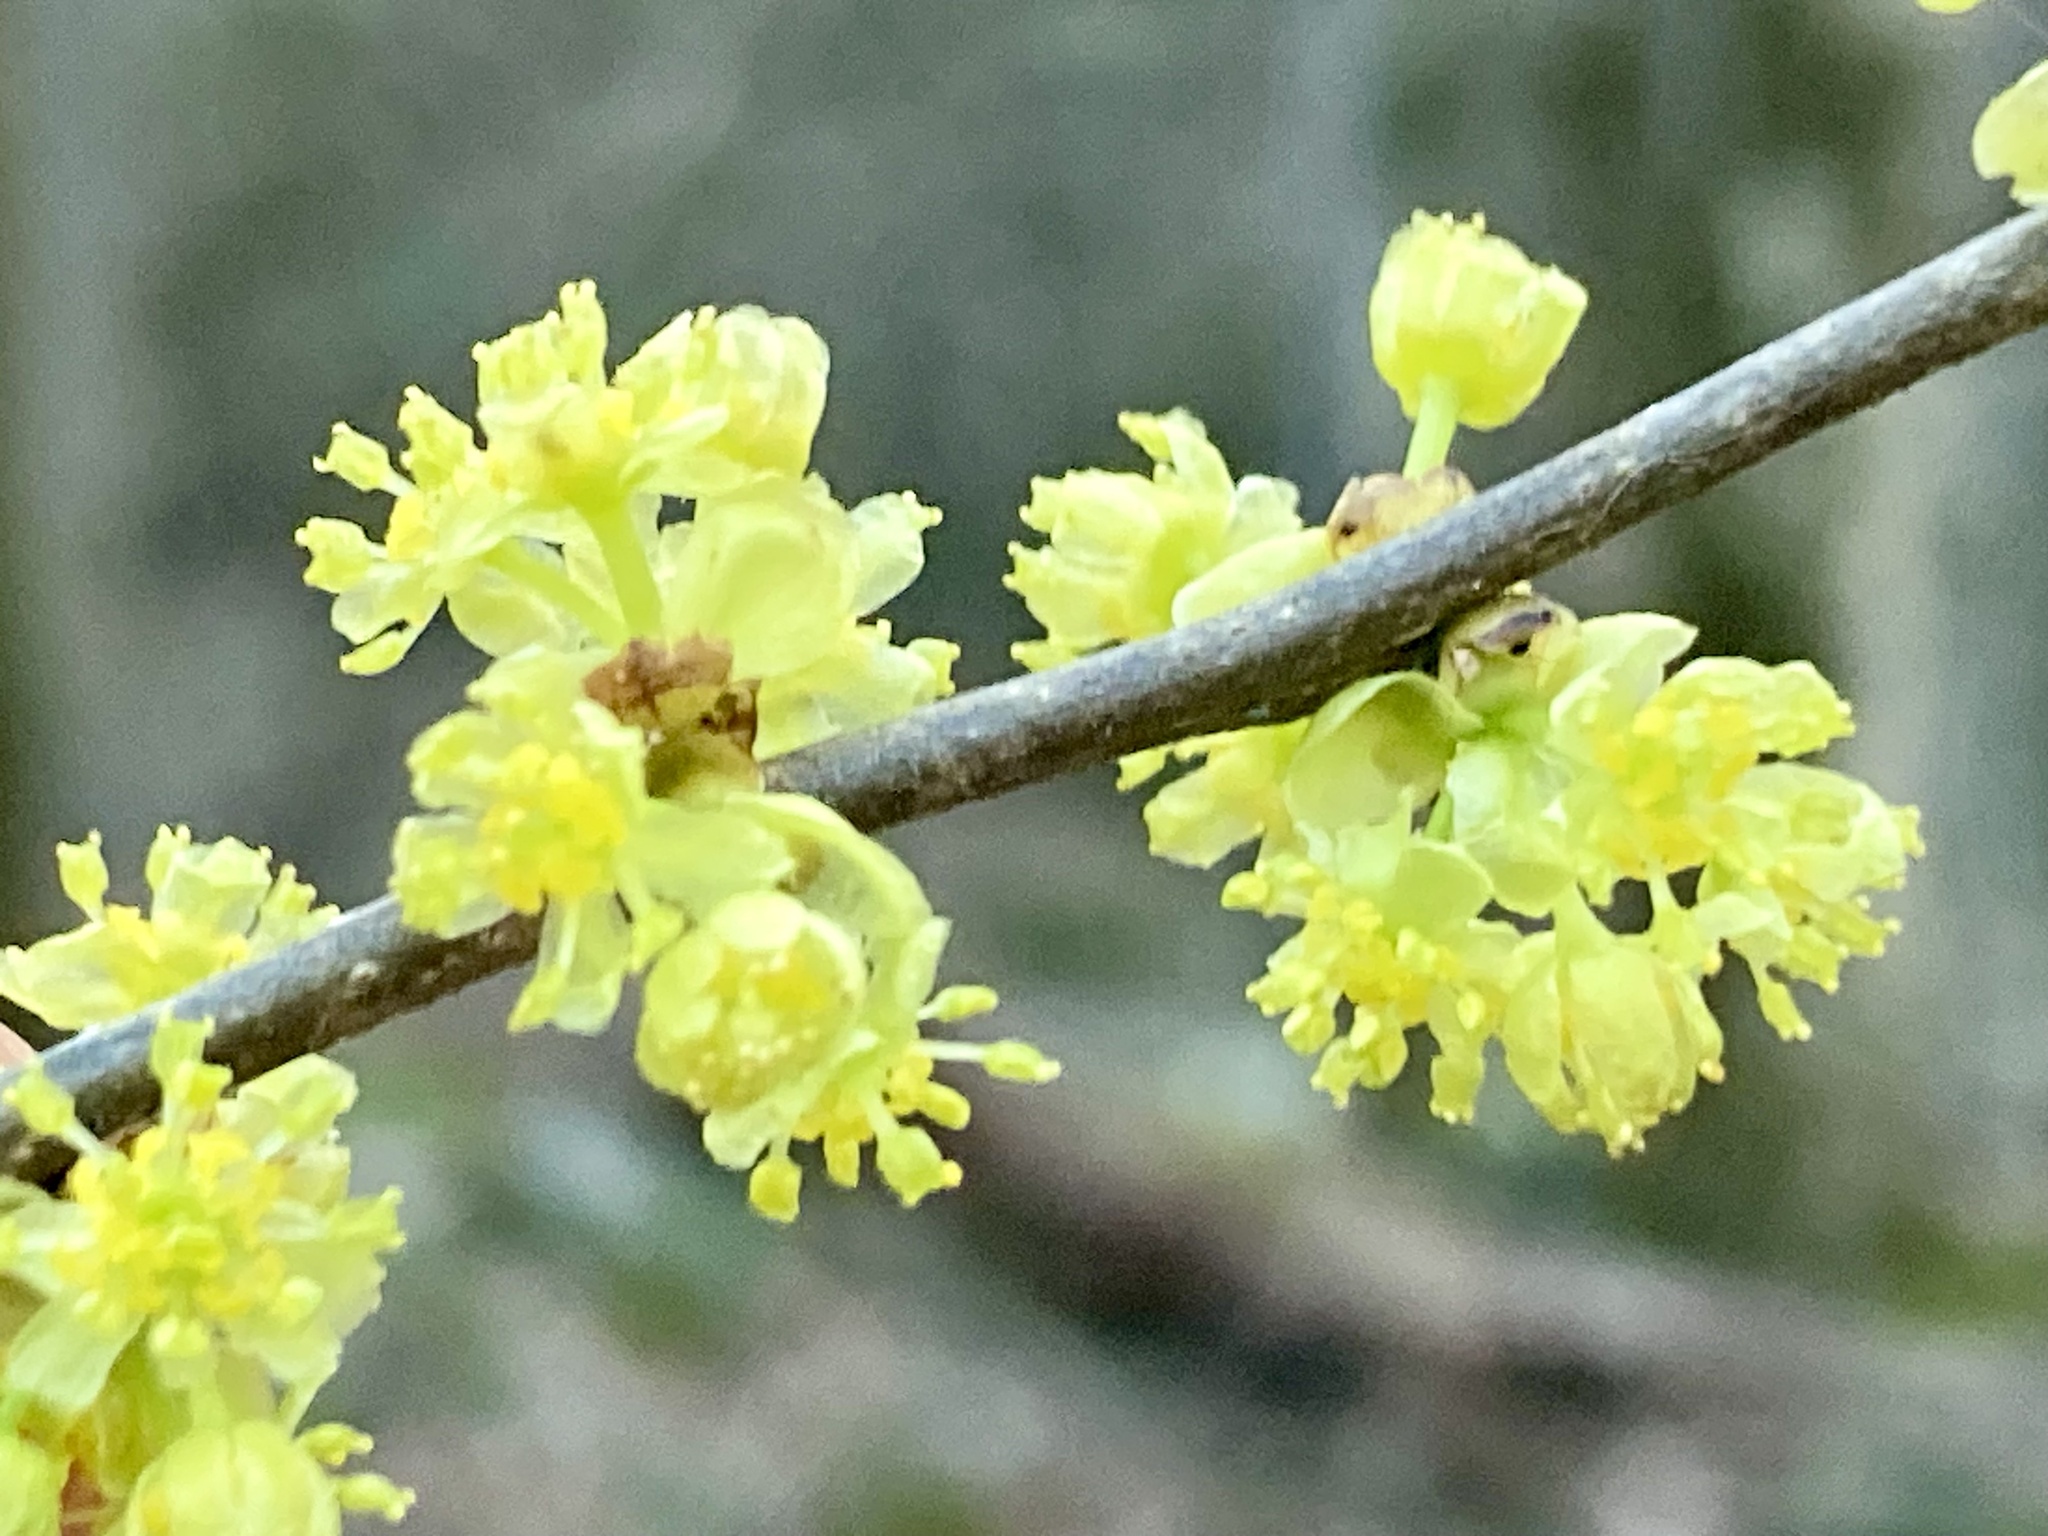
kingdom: Plantae
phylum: Tracheophyta
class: Magnoliopsida
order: Laurales
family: Lauraceae
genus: Lindera
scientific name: Lindera benzoin
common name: Spicebush
